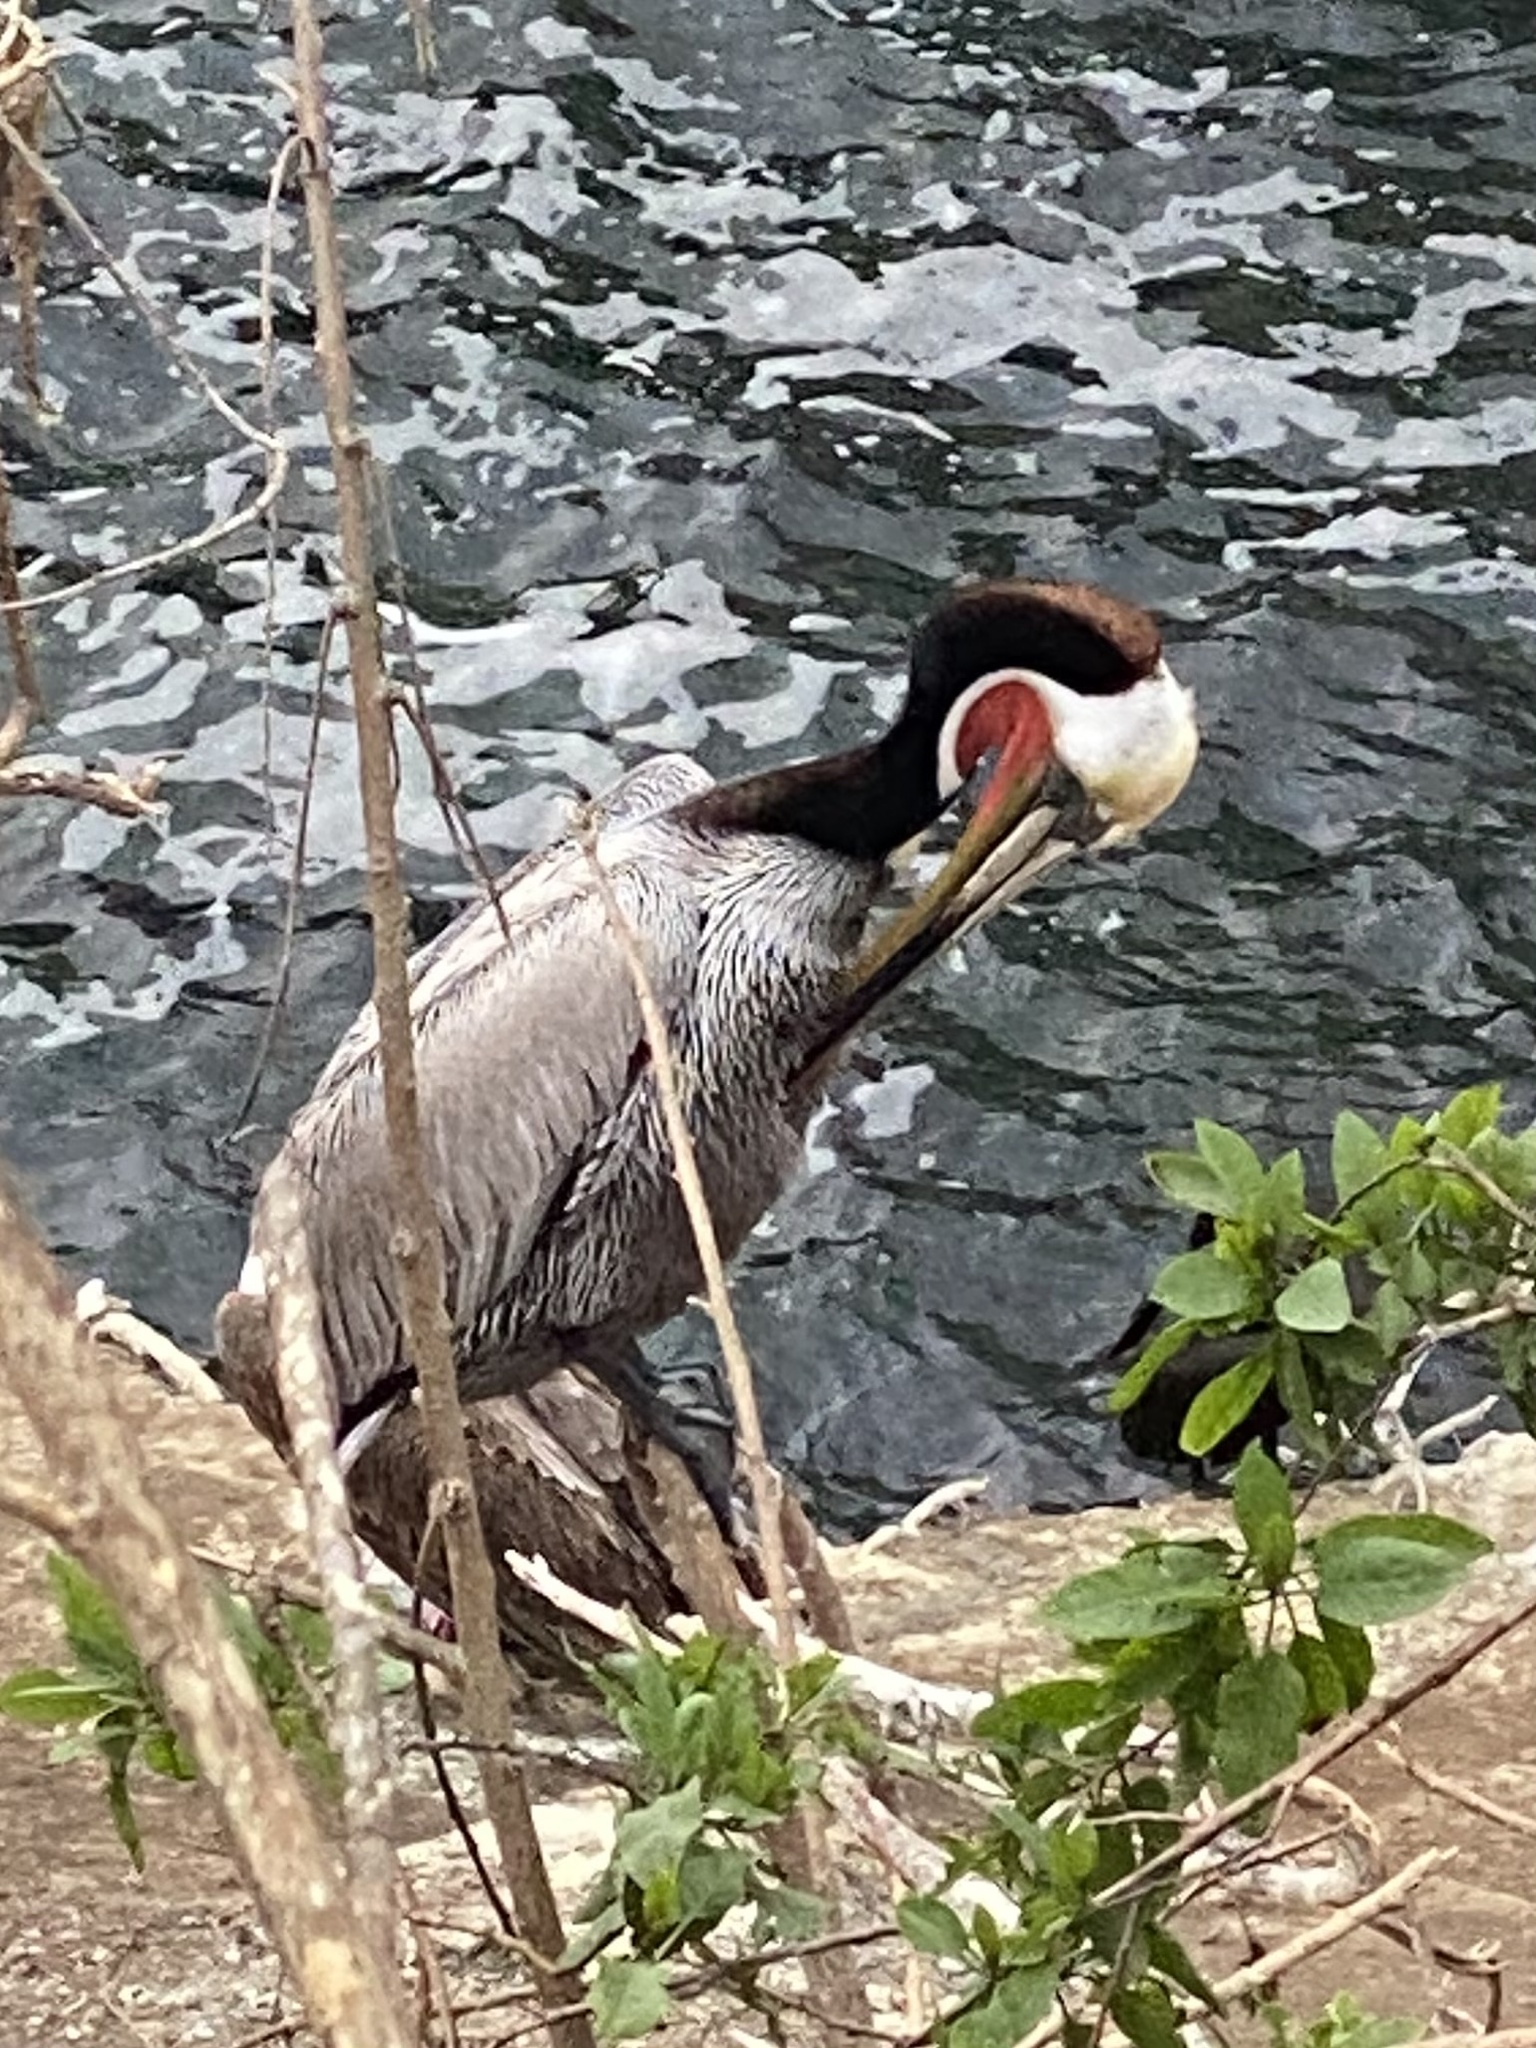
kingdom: Animalia
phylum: Chordata
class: Aves
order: Pelecaniformes
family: Pelecanidae
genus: Pelecanus
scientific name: Pelecanus occidentalis
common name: Brown pelican
